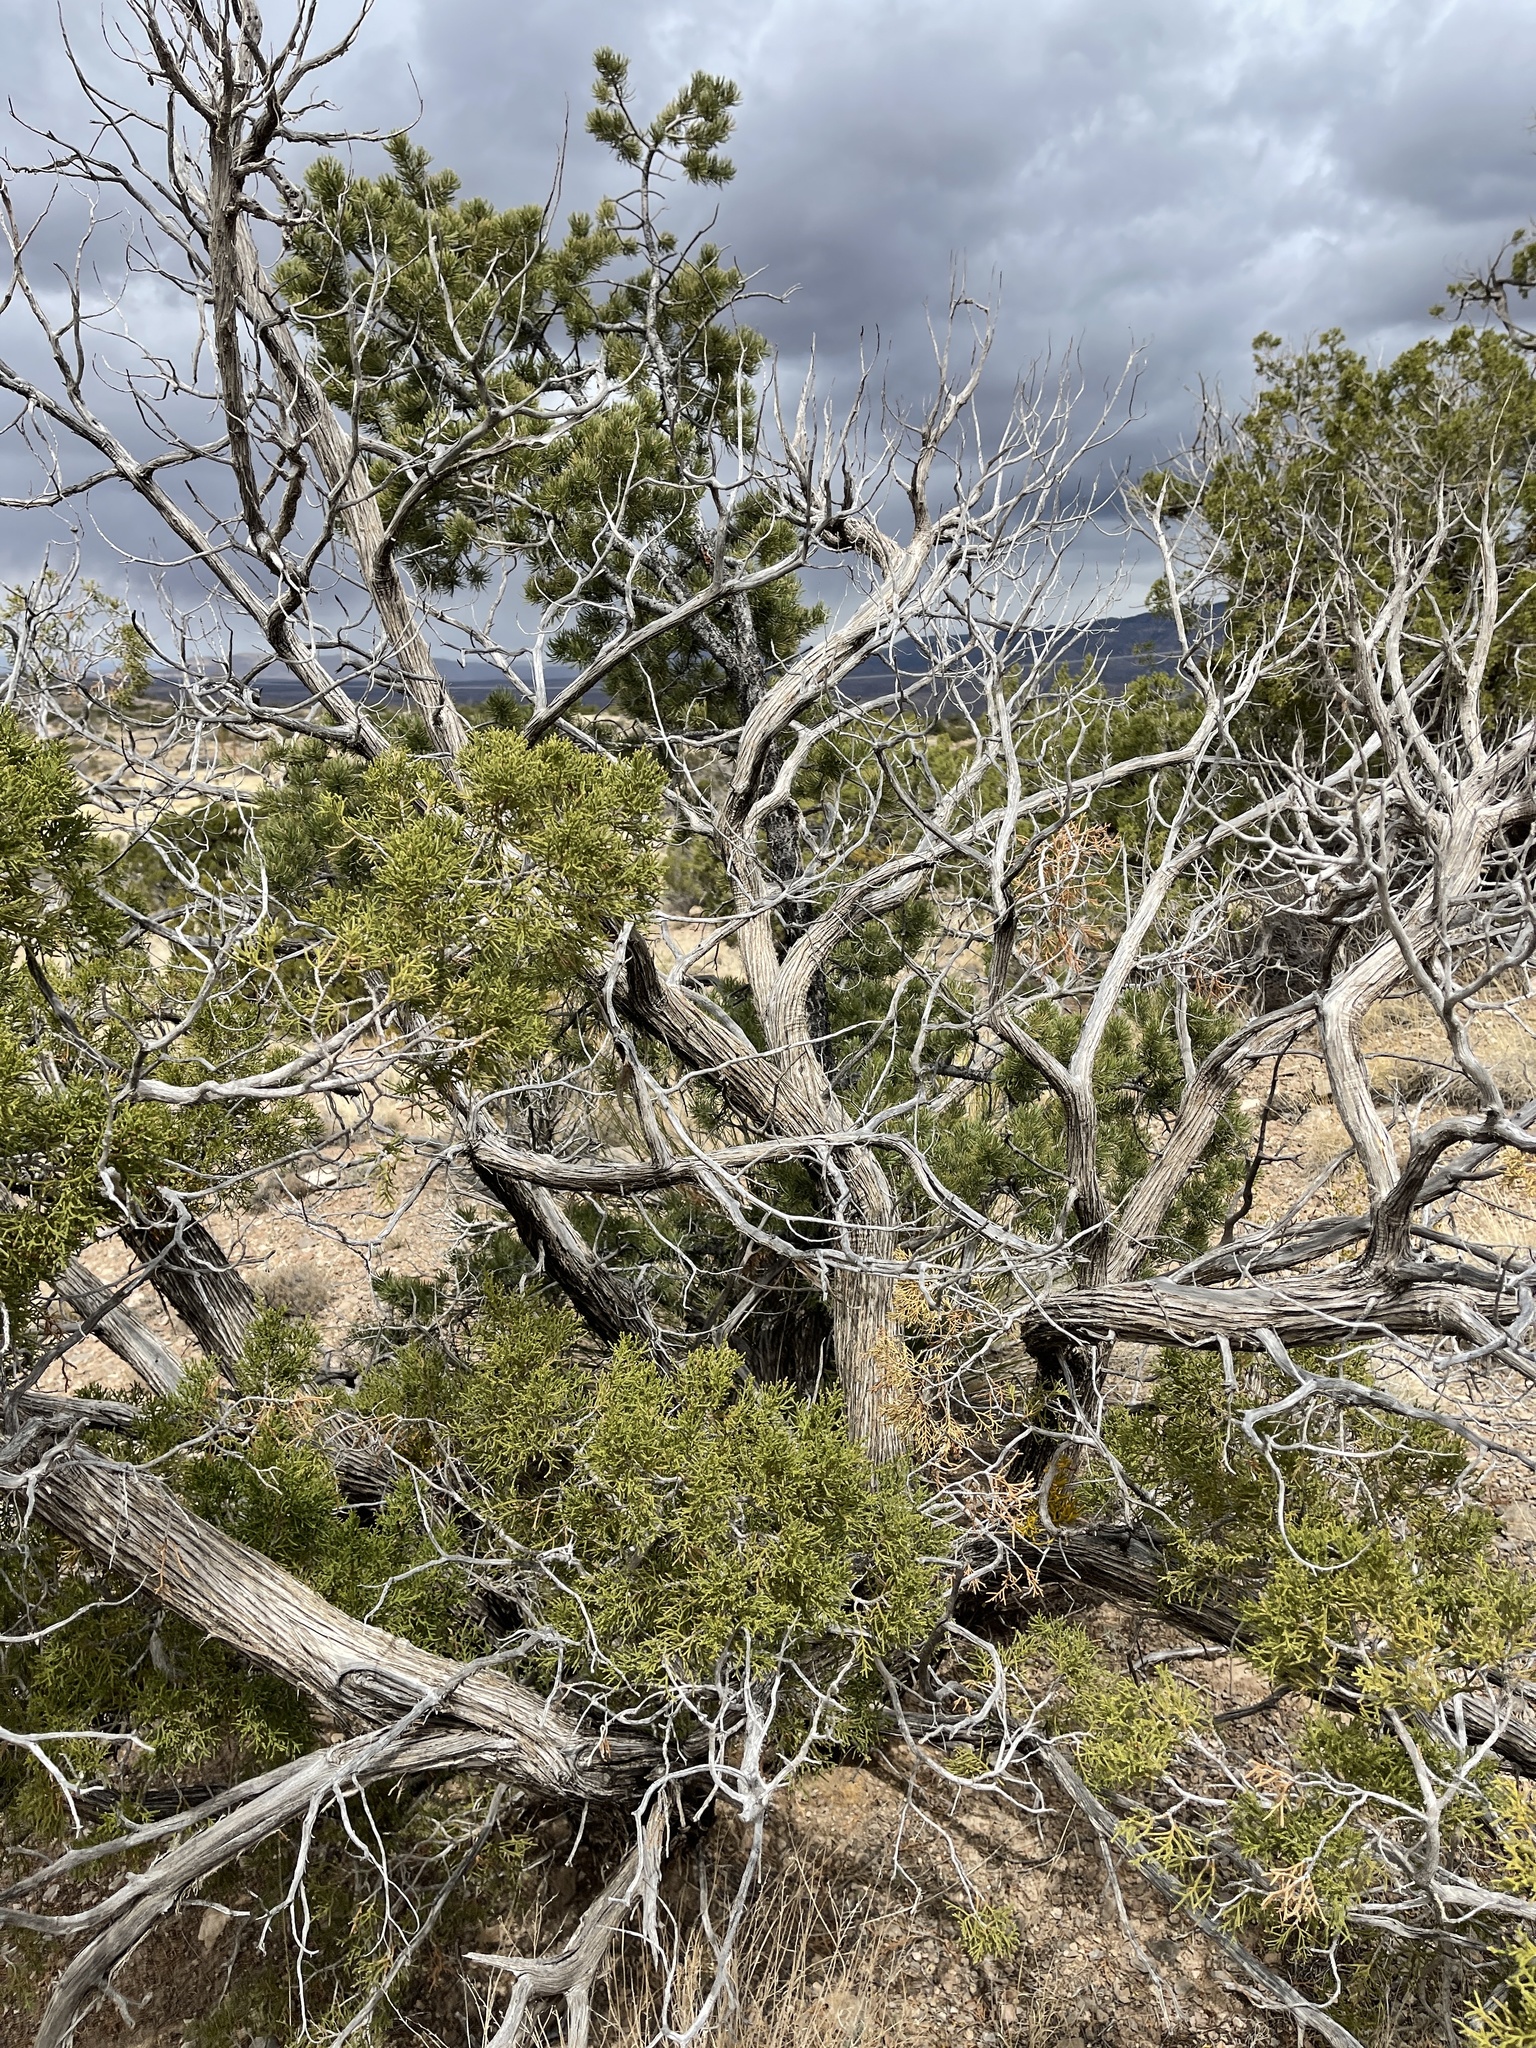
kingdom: Plantae
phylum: Tracheophyta
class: Pinopsida
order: Pinales
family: Cupressaceae
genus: Juniperus
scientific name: Juniperus monosperma
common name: One-seed juniper
